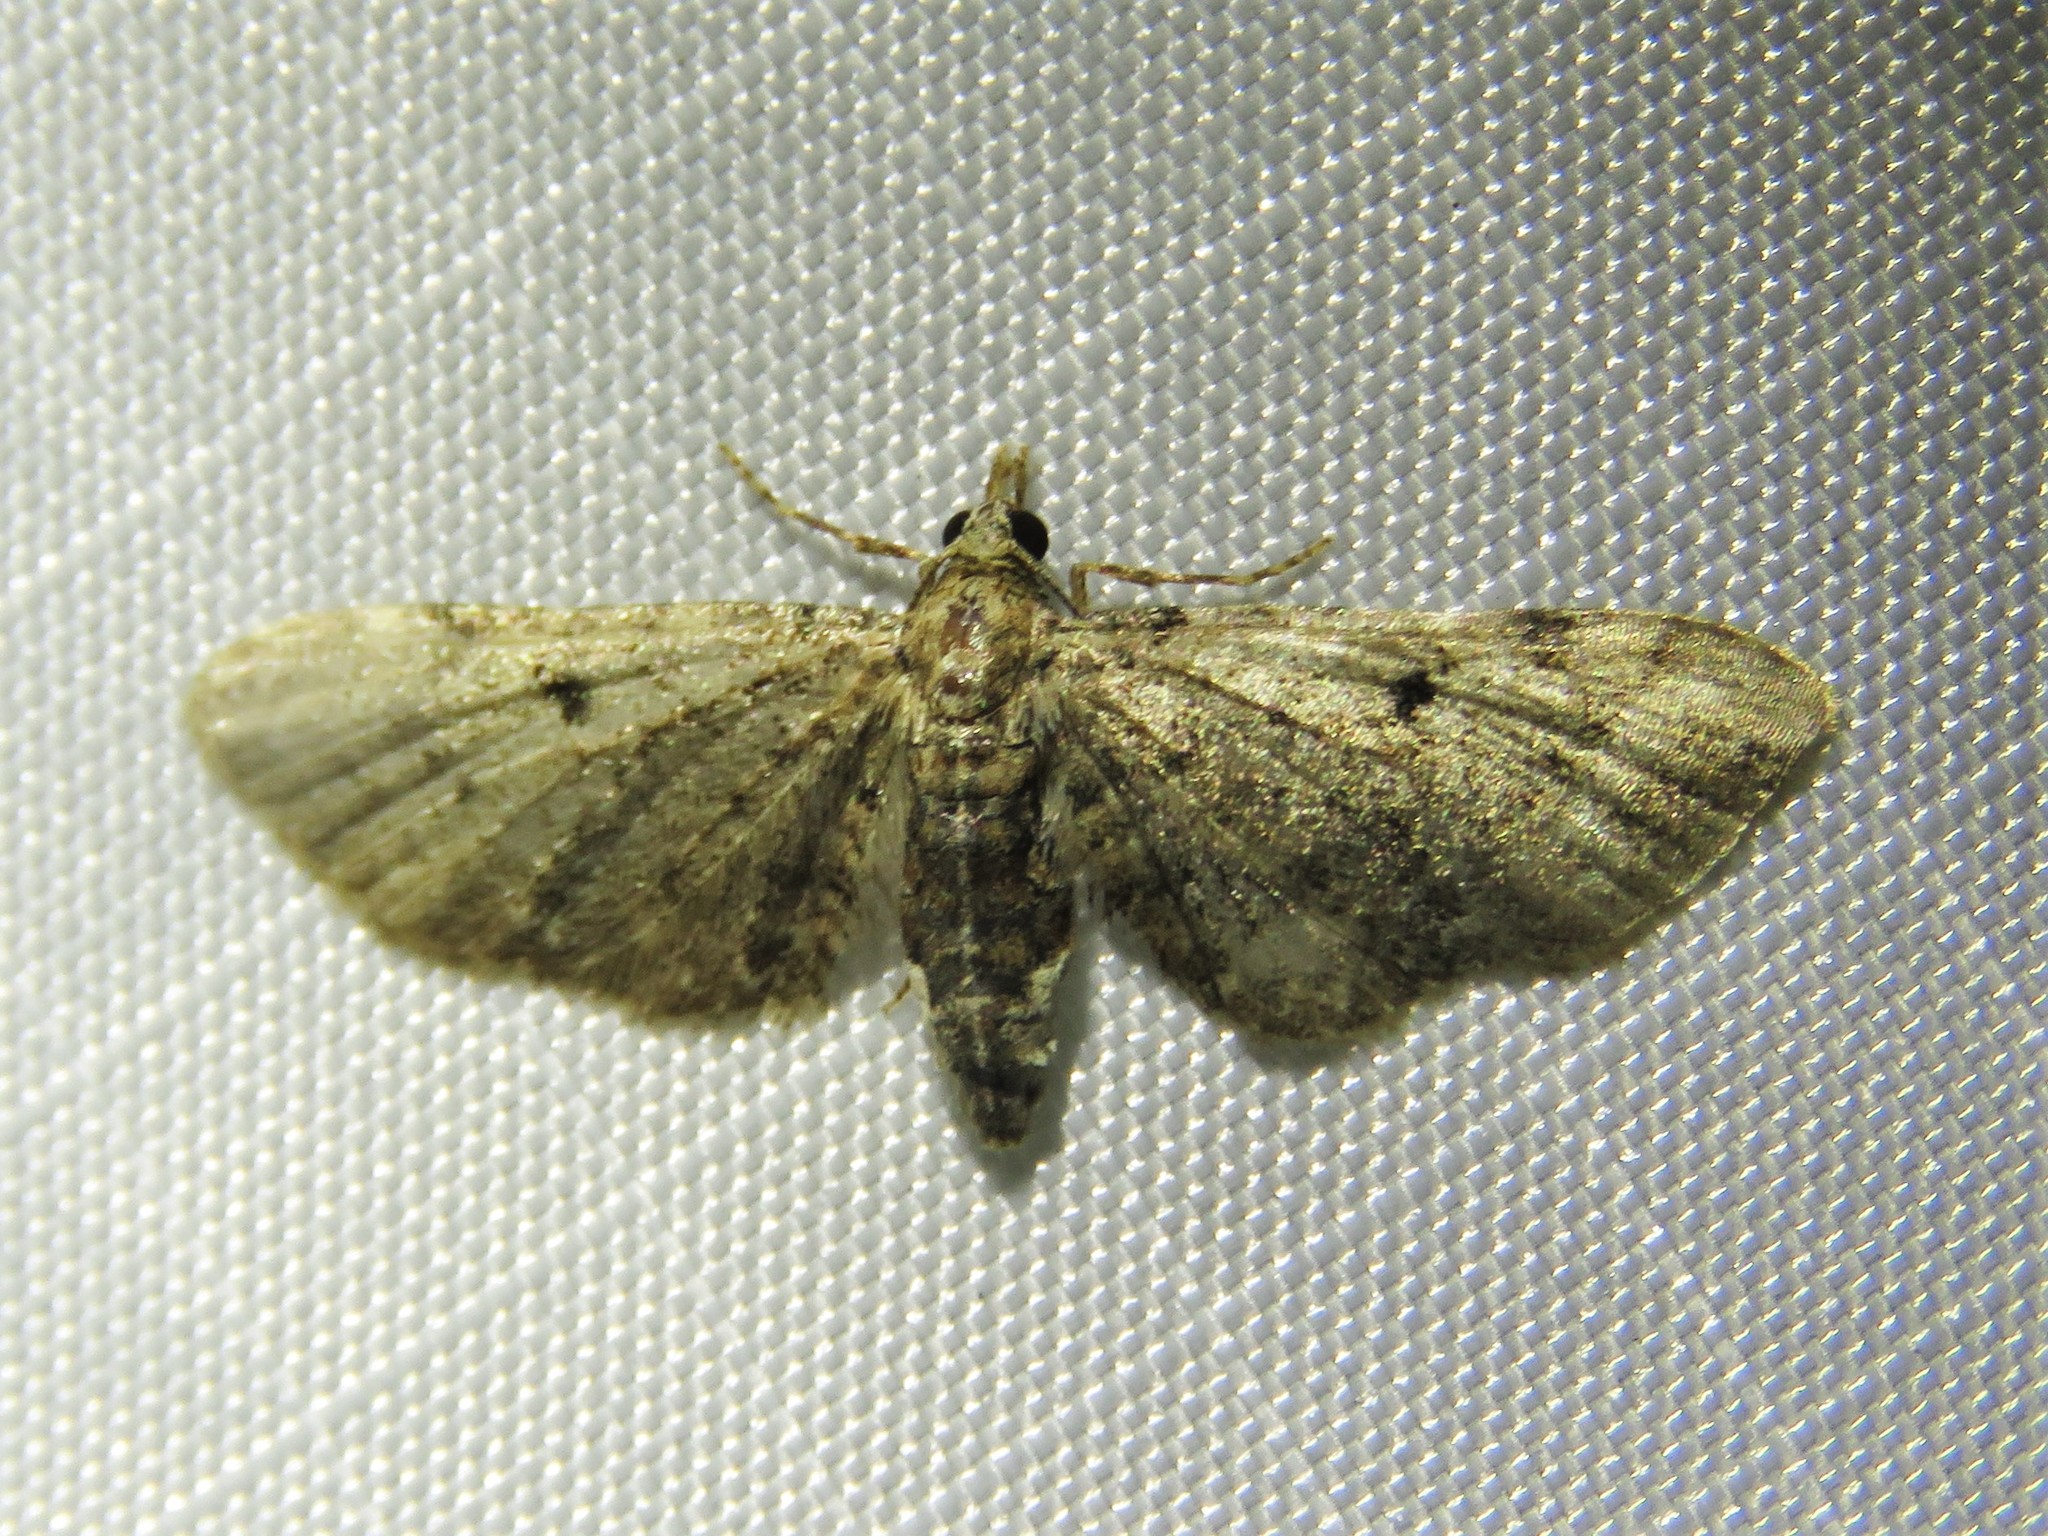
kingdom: Animalia
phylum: Arthropoda
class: Insecta
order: Lepidoptera
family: Geometridae
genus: Eupithecia
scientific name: Eupithecia miserulata
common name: Common eupithecia
